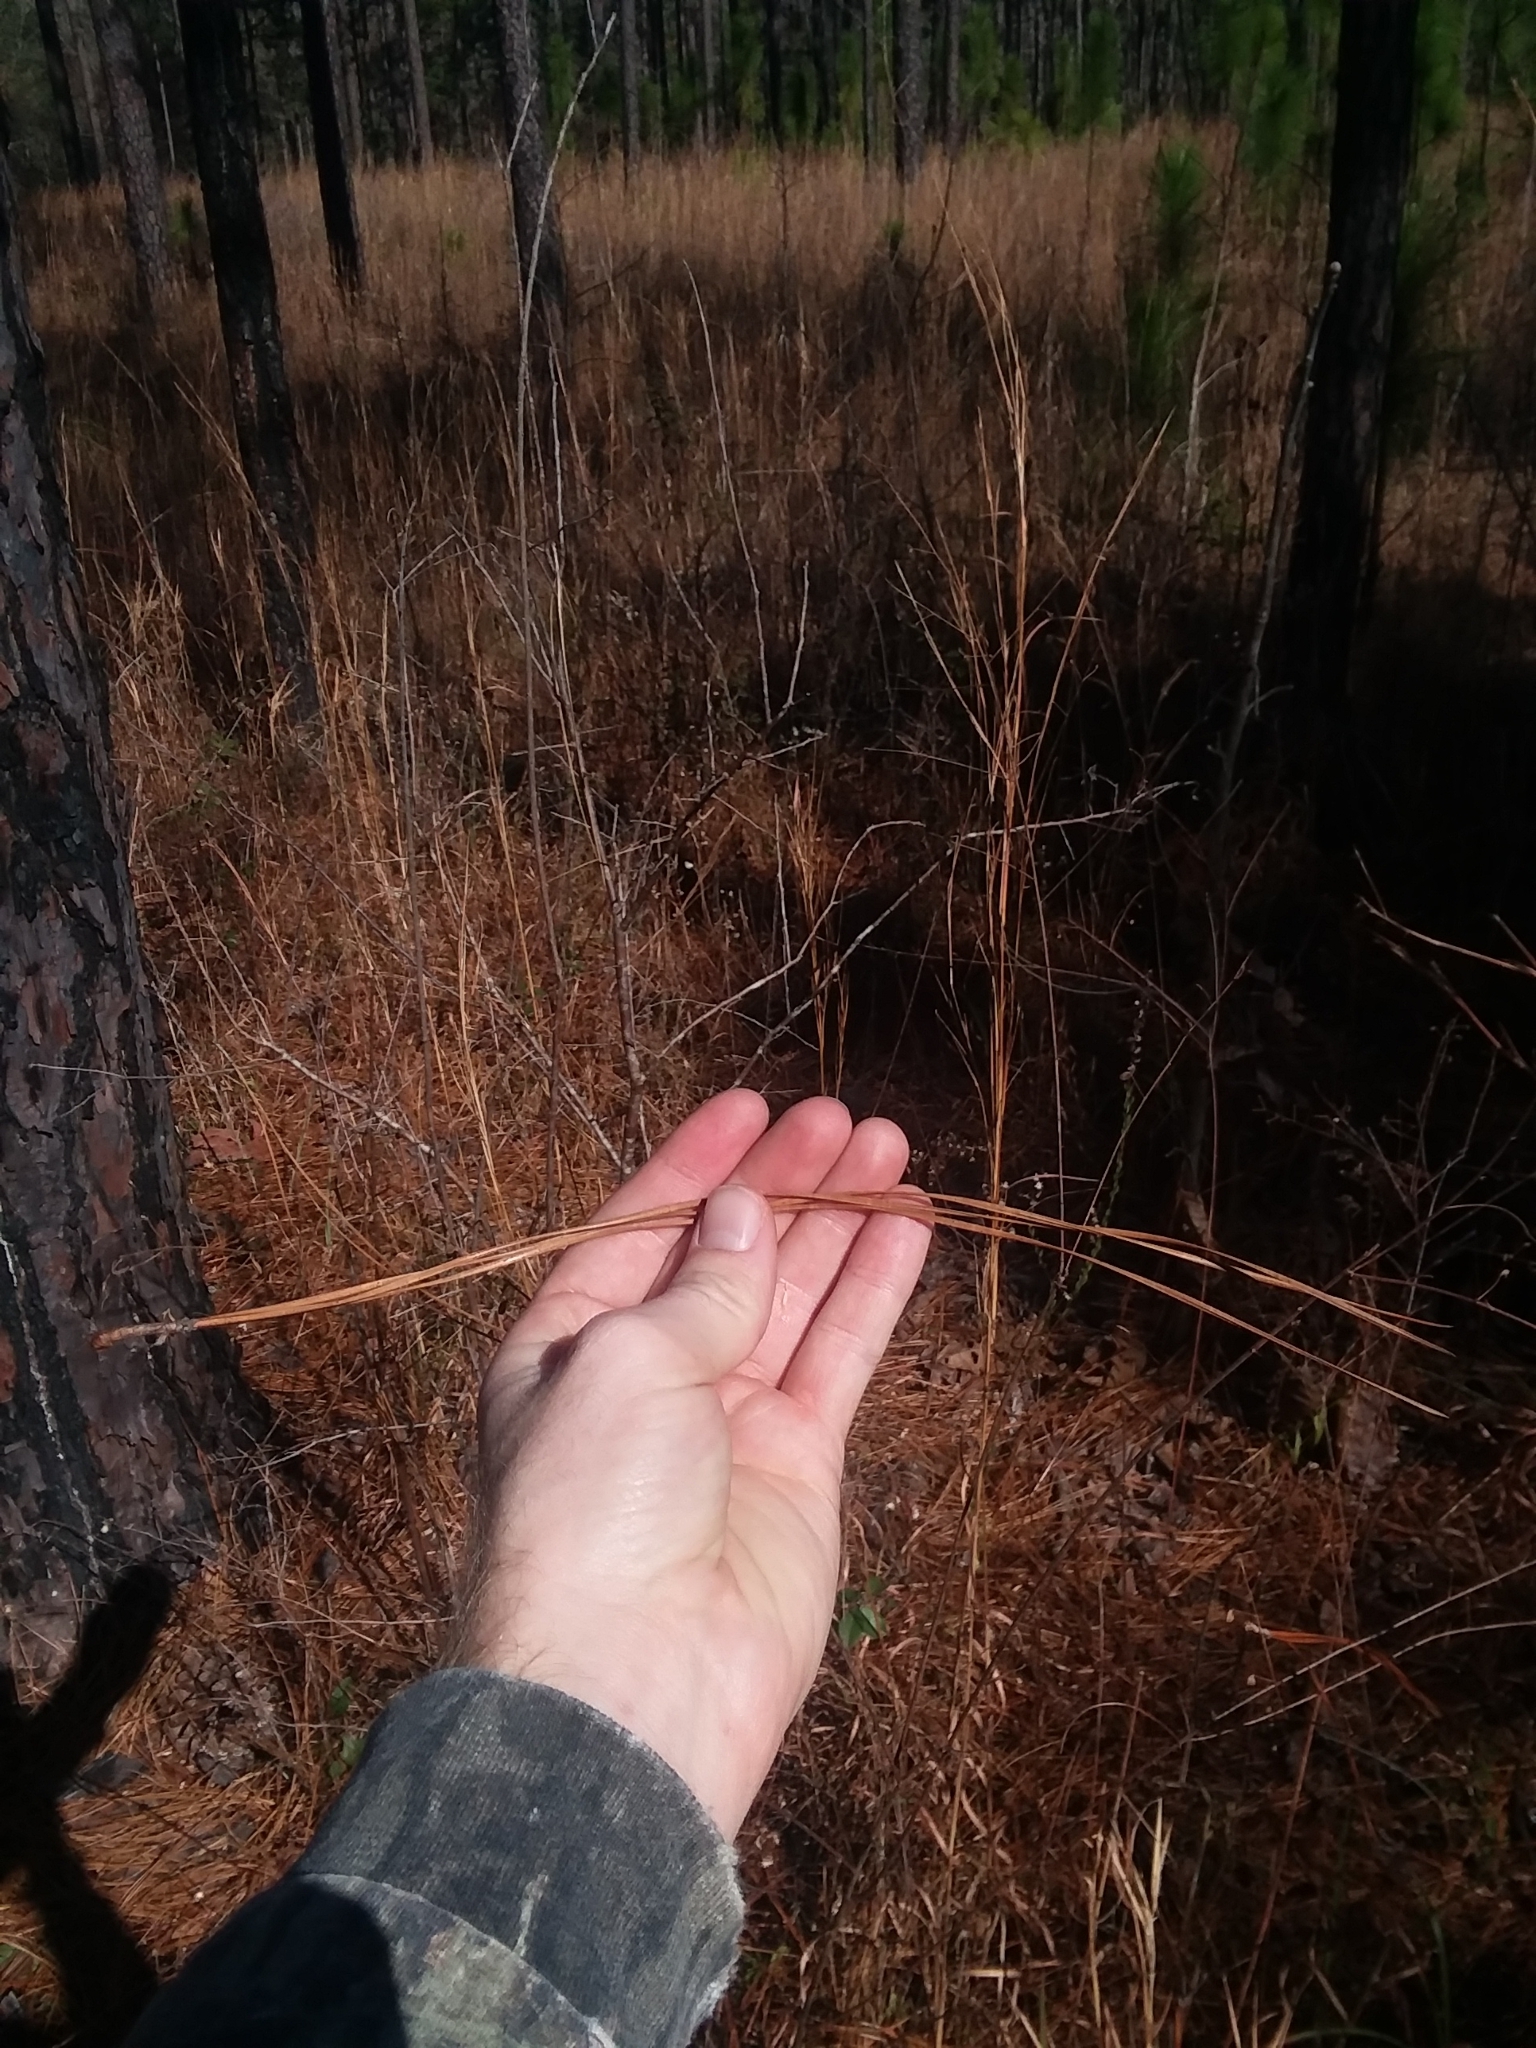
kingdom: Plantae
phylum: Tracheophyta
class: Pinopsida
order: Pinales
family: Pinaceae
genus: Pinus
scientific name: Pinus palustris
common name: Longleaf pine
